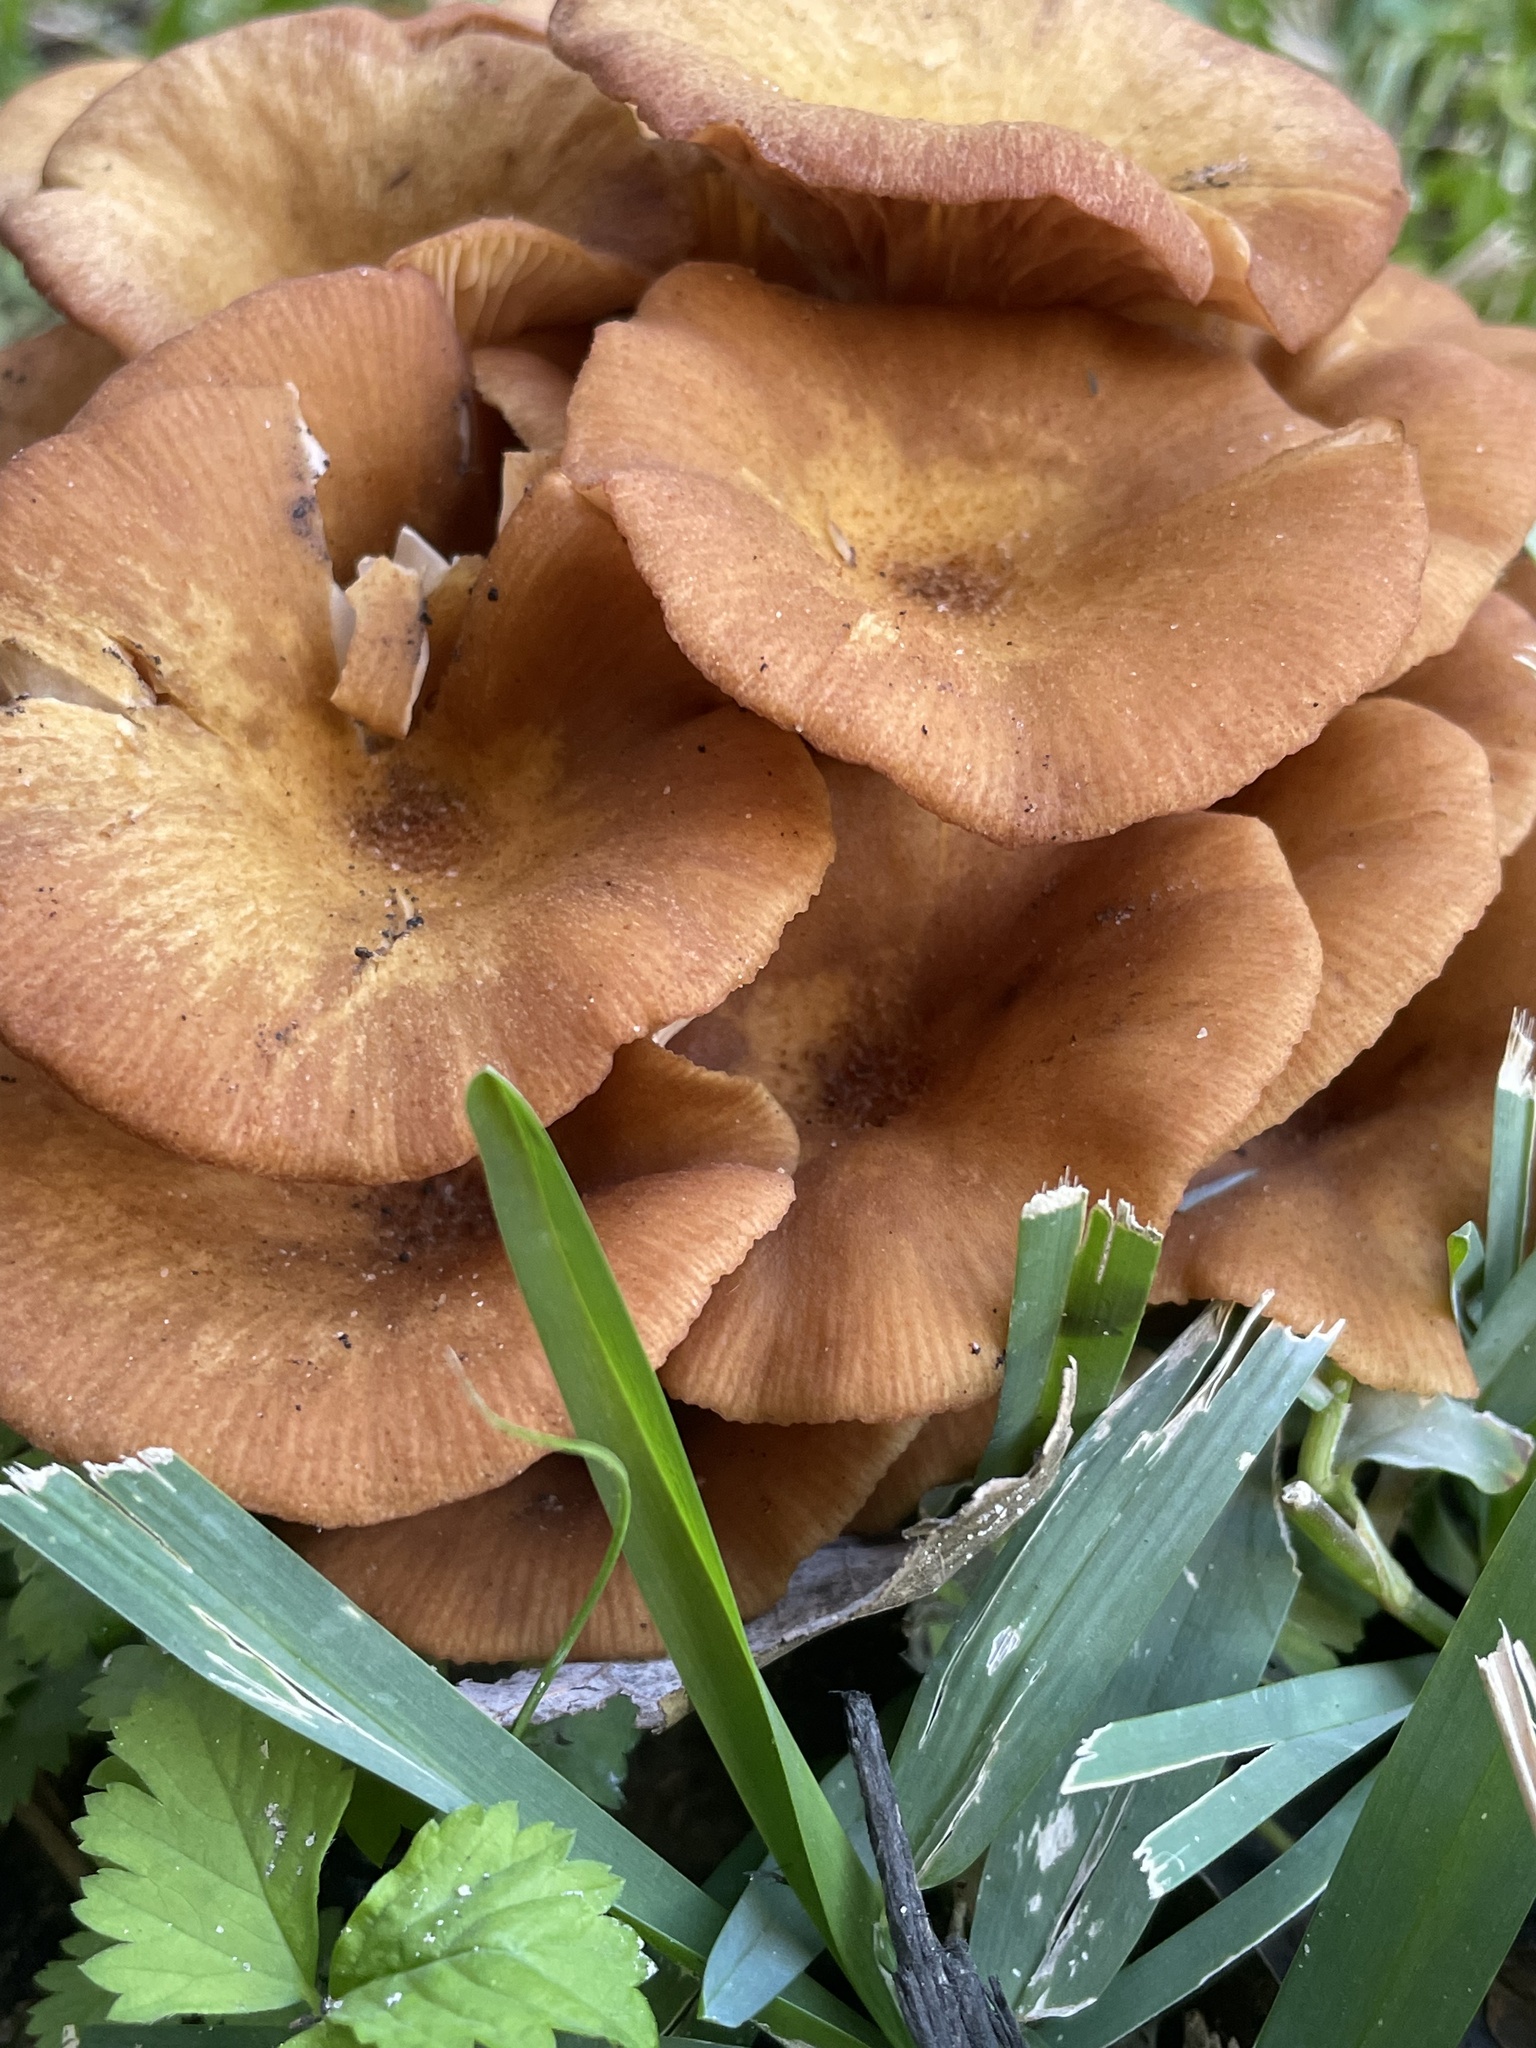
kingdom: Fungi
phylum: Basidiomycota
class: Agaricomycetes
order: Agaricales
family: Physalacriaceae
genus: Desarmillaria
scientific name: Desarmillaria caespitosa
